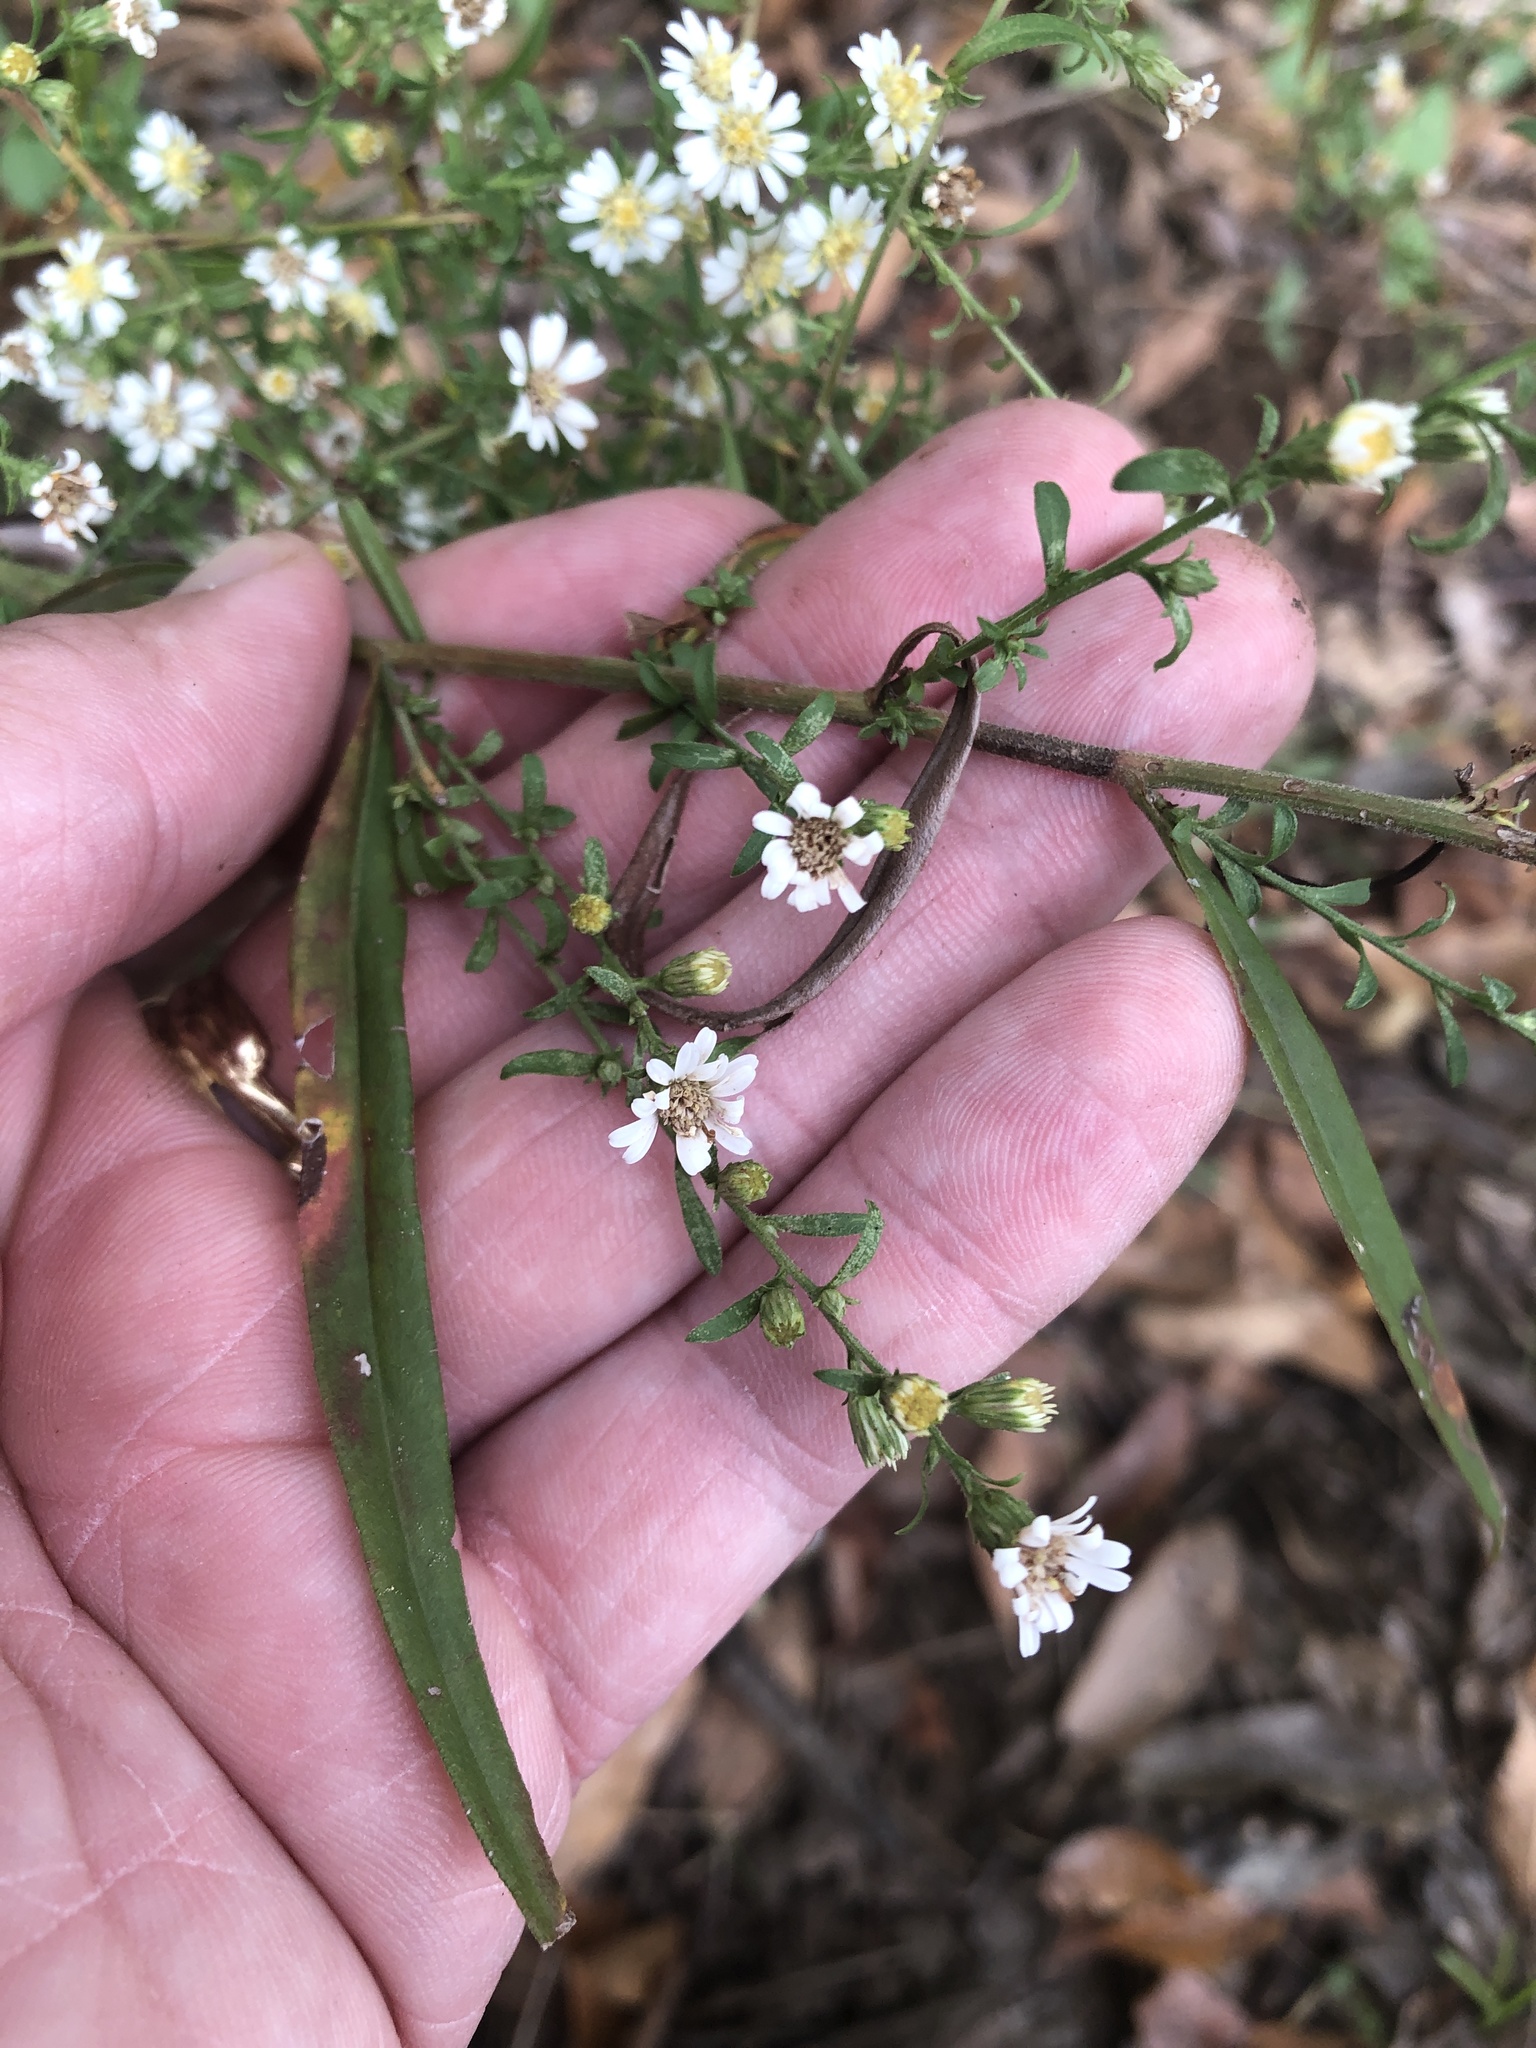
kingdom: Plantae
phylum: Tracheophyta
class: Magnoliopsida
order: Asterales
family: Asteraceae
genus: Symphyotrichum
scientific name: Symphyotrichum praealtum
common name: Willow aster
